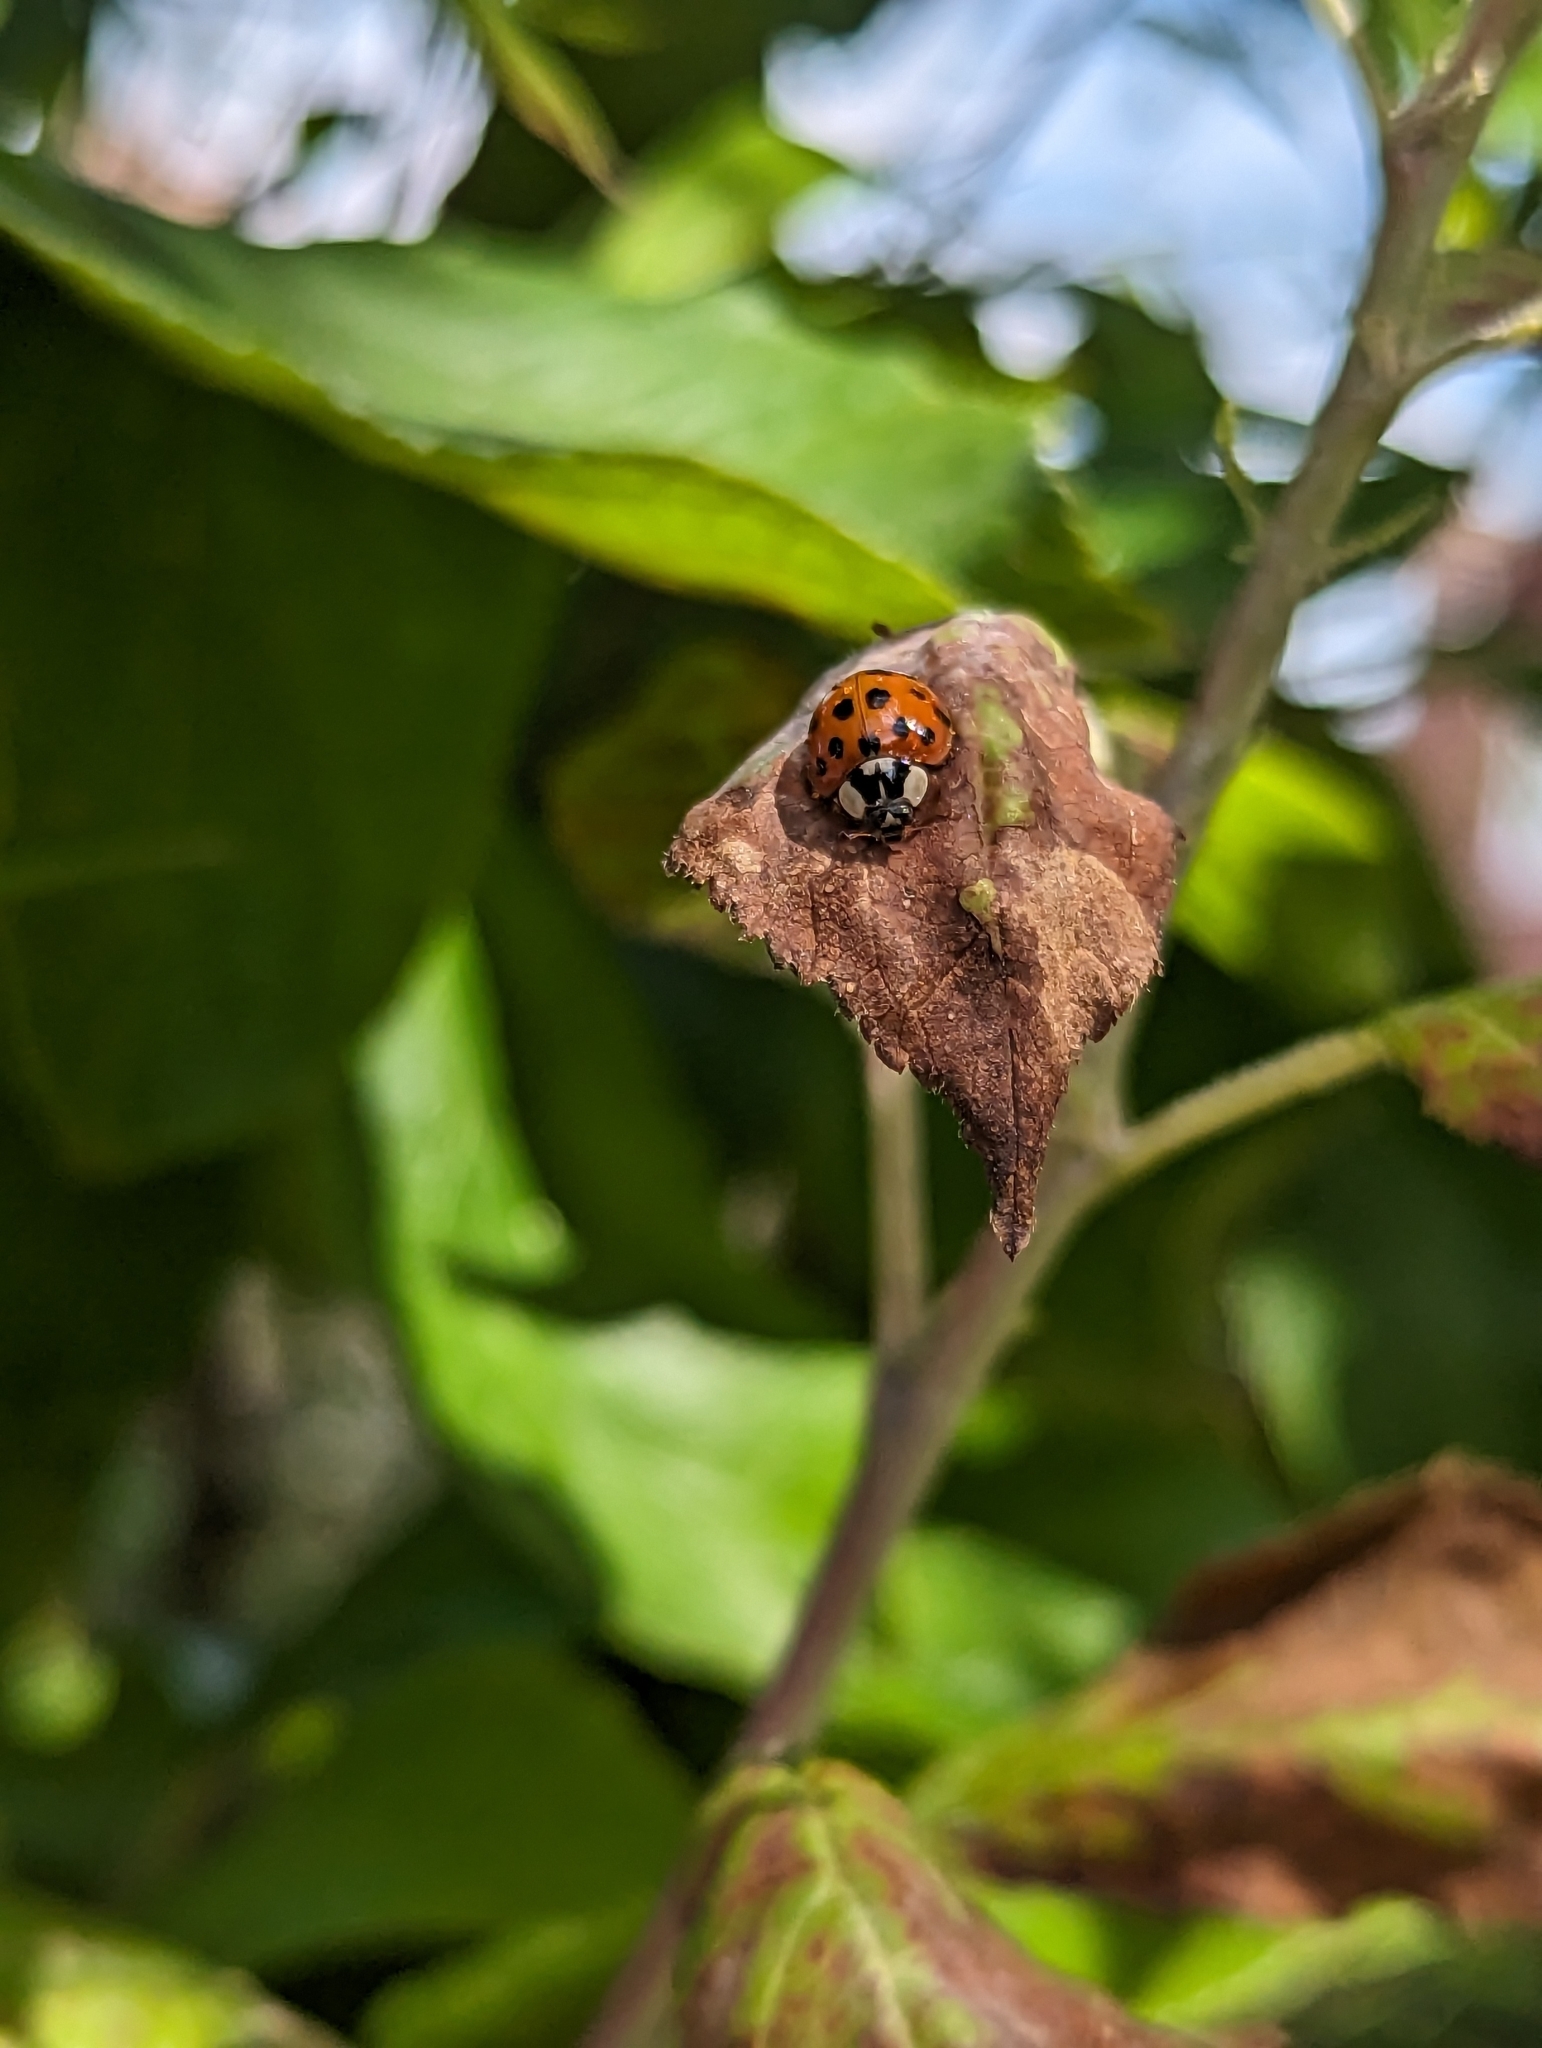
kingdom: Animalia
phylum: Arthropoda
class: Insecta
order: Coleoptera
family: Coccinellidae
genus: Harmonia
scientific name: Harmonia axyridis
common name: Harlequin ladybird
